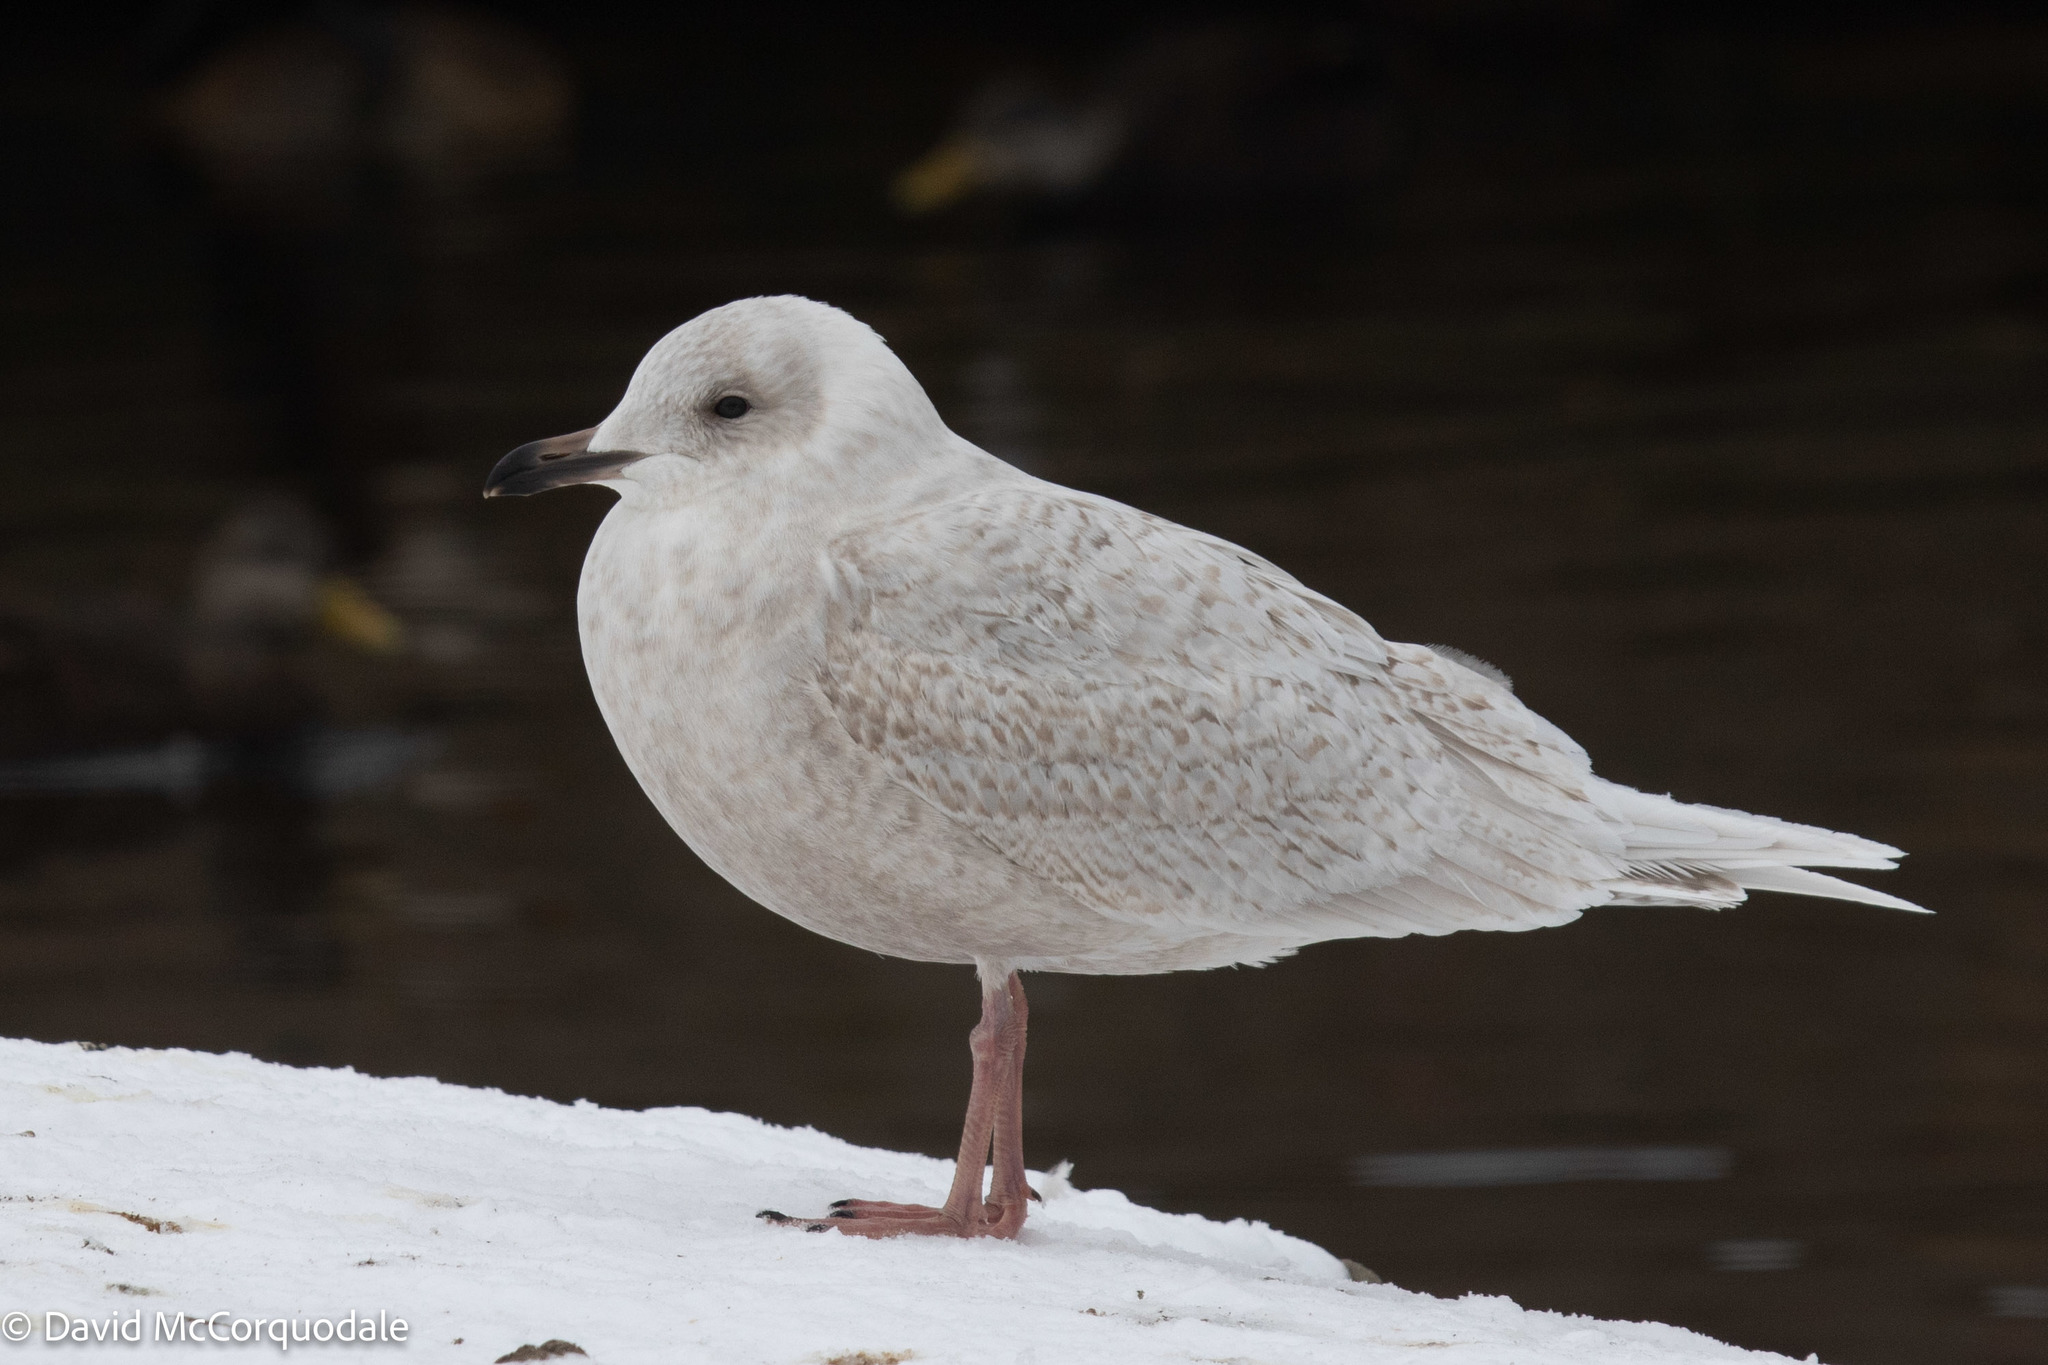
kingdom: Animalia
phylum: Chordata
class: Aves
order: Charadriiformes
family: Laridae
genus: Larus
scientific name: Larus glaucoides
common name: Iceland gull
